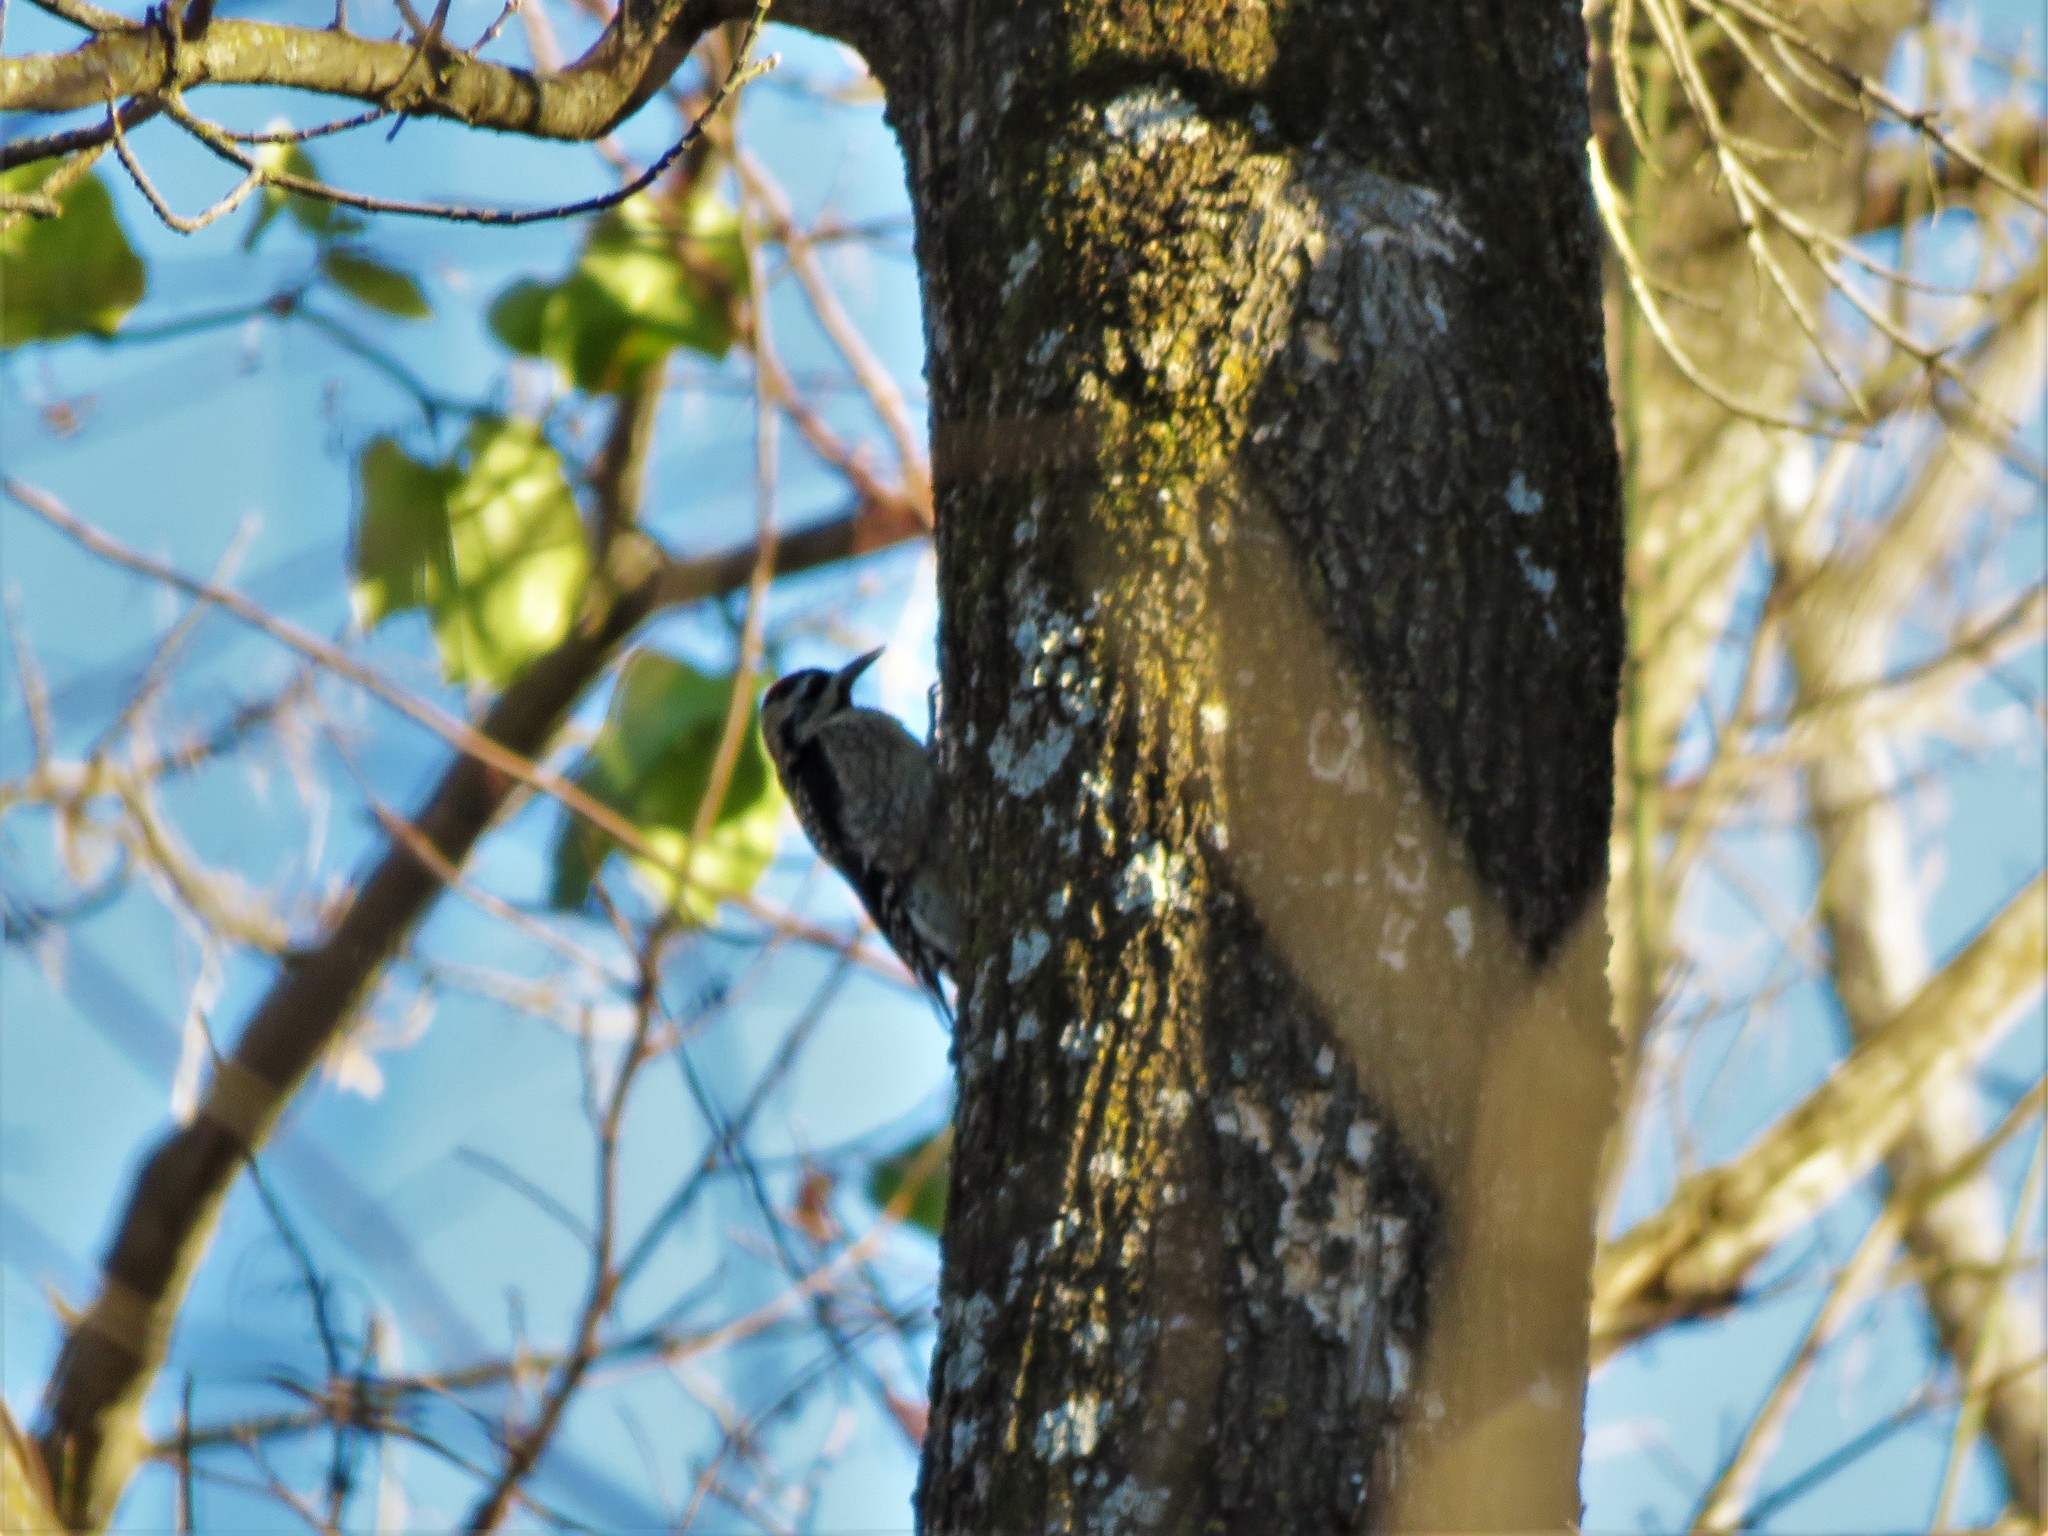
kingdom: Animalia
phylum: Chordata
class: Aves
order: Piciformes
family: Picidae
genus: Sphyrapicus
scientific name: Sphyrapicus varius
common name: Yellow-bellied sapsucker
